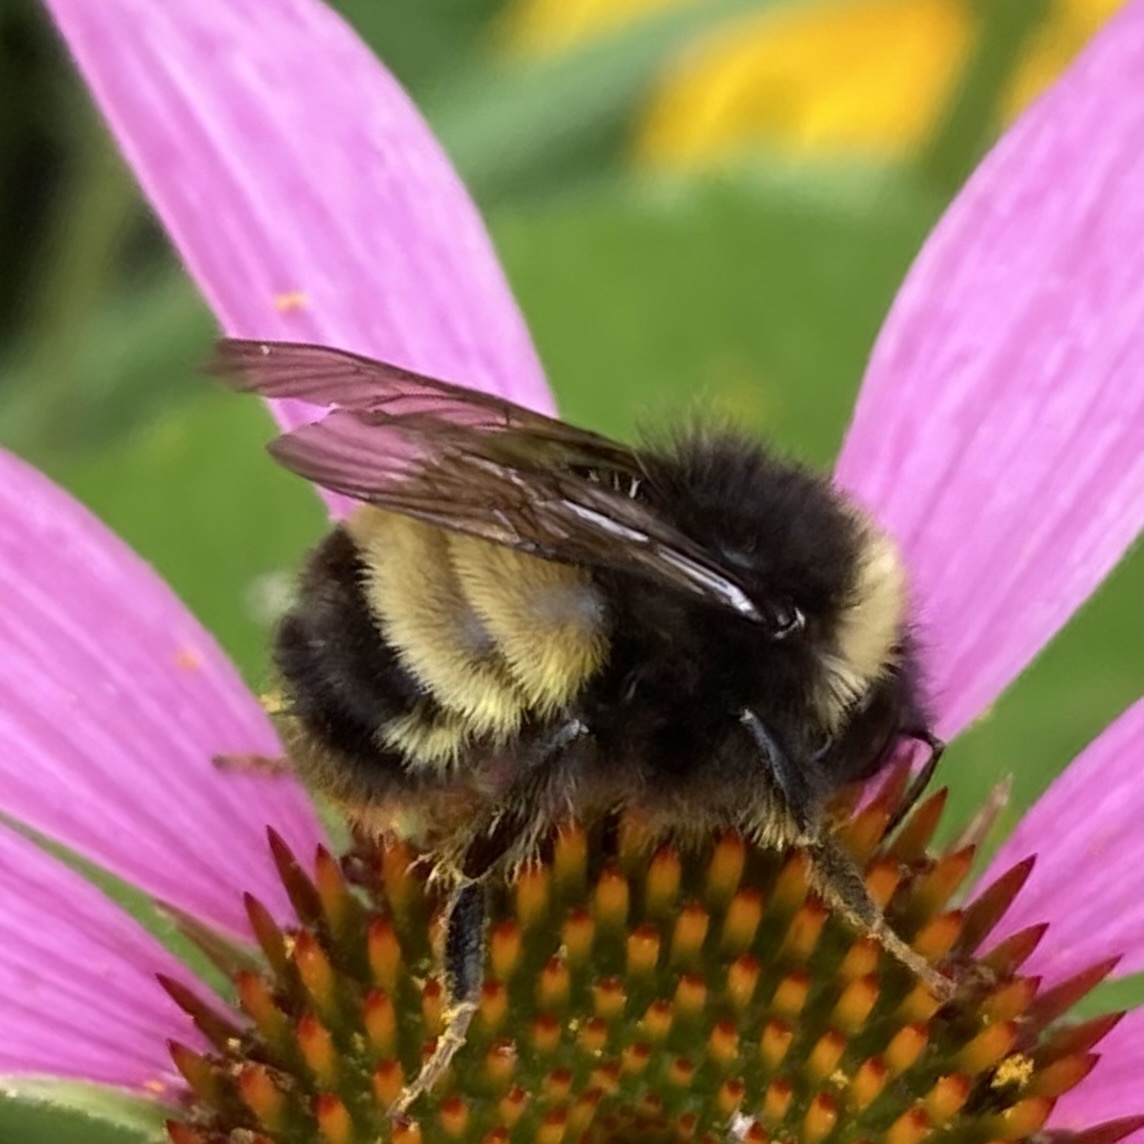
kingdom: Animalia
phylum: Arthropoda
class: Insecta
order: Hymenoptera
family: Apidae
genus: Bombus
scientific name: Bombus terricola
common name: Yellow-banded bumble bee
